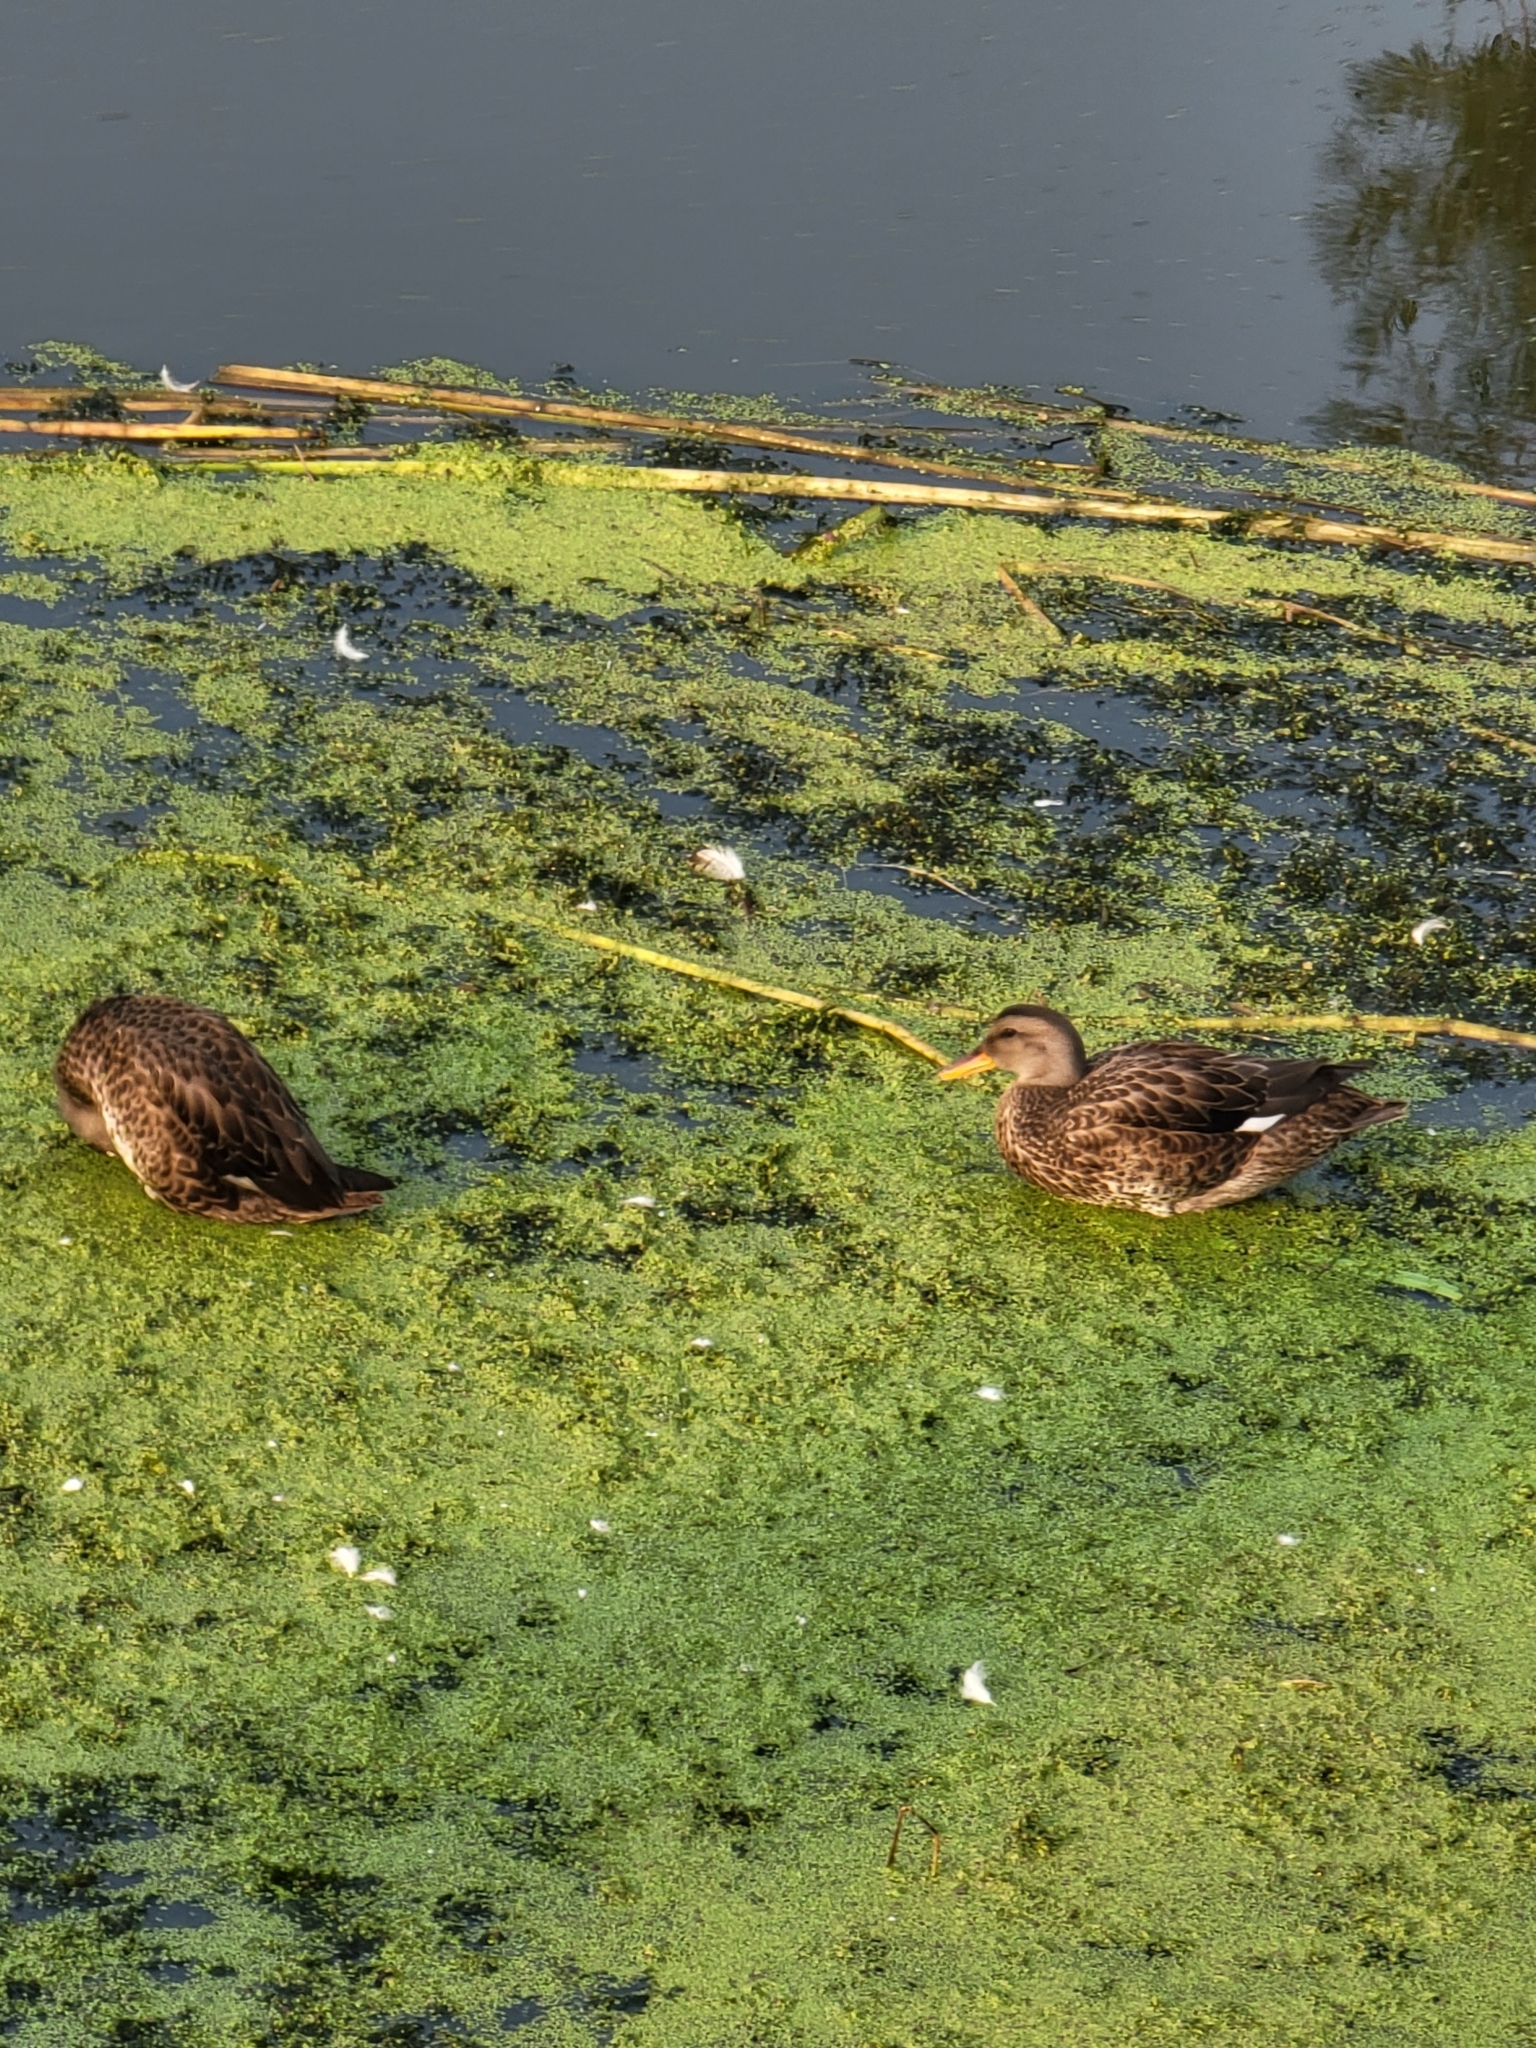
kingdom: Animalia
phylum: Chordata
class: Aves
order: Anseriformes
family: Anatidae
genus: Mareca
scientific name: Mareca strepera
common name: Gadwall
